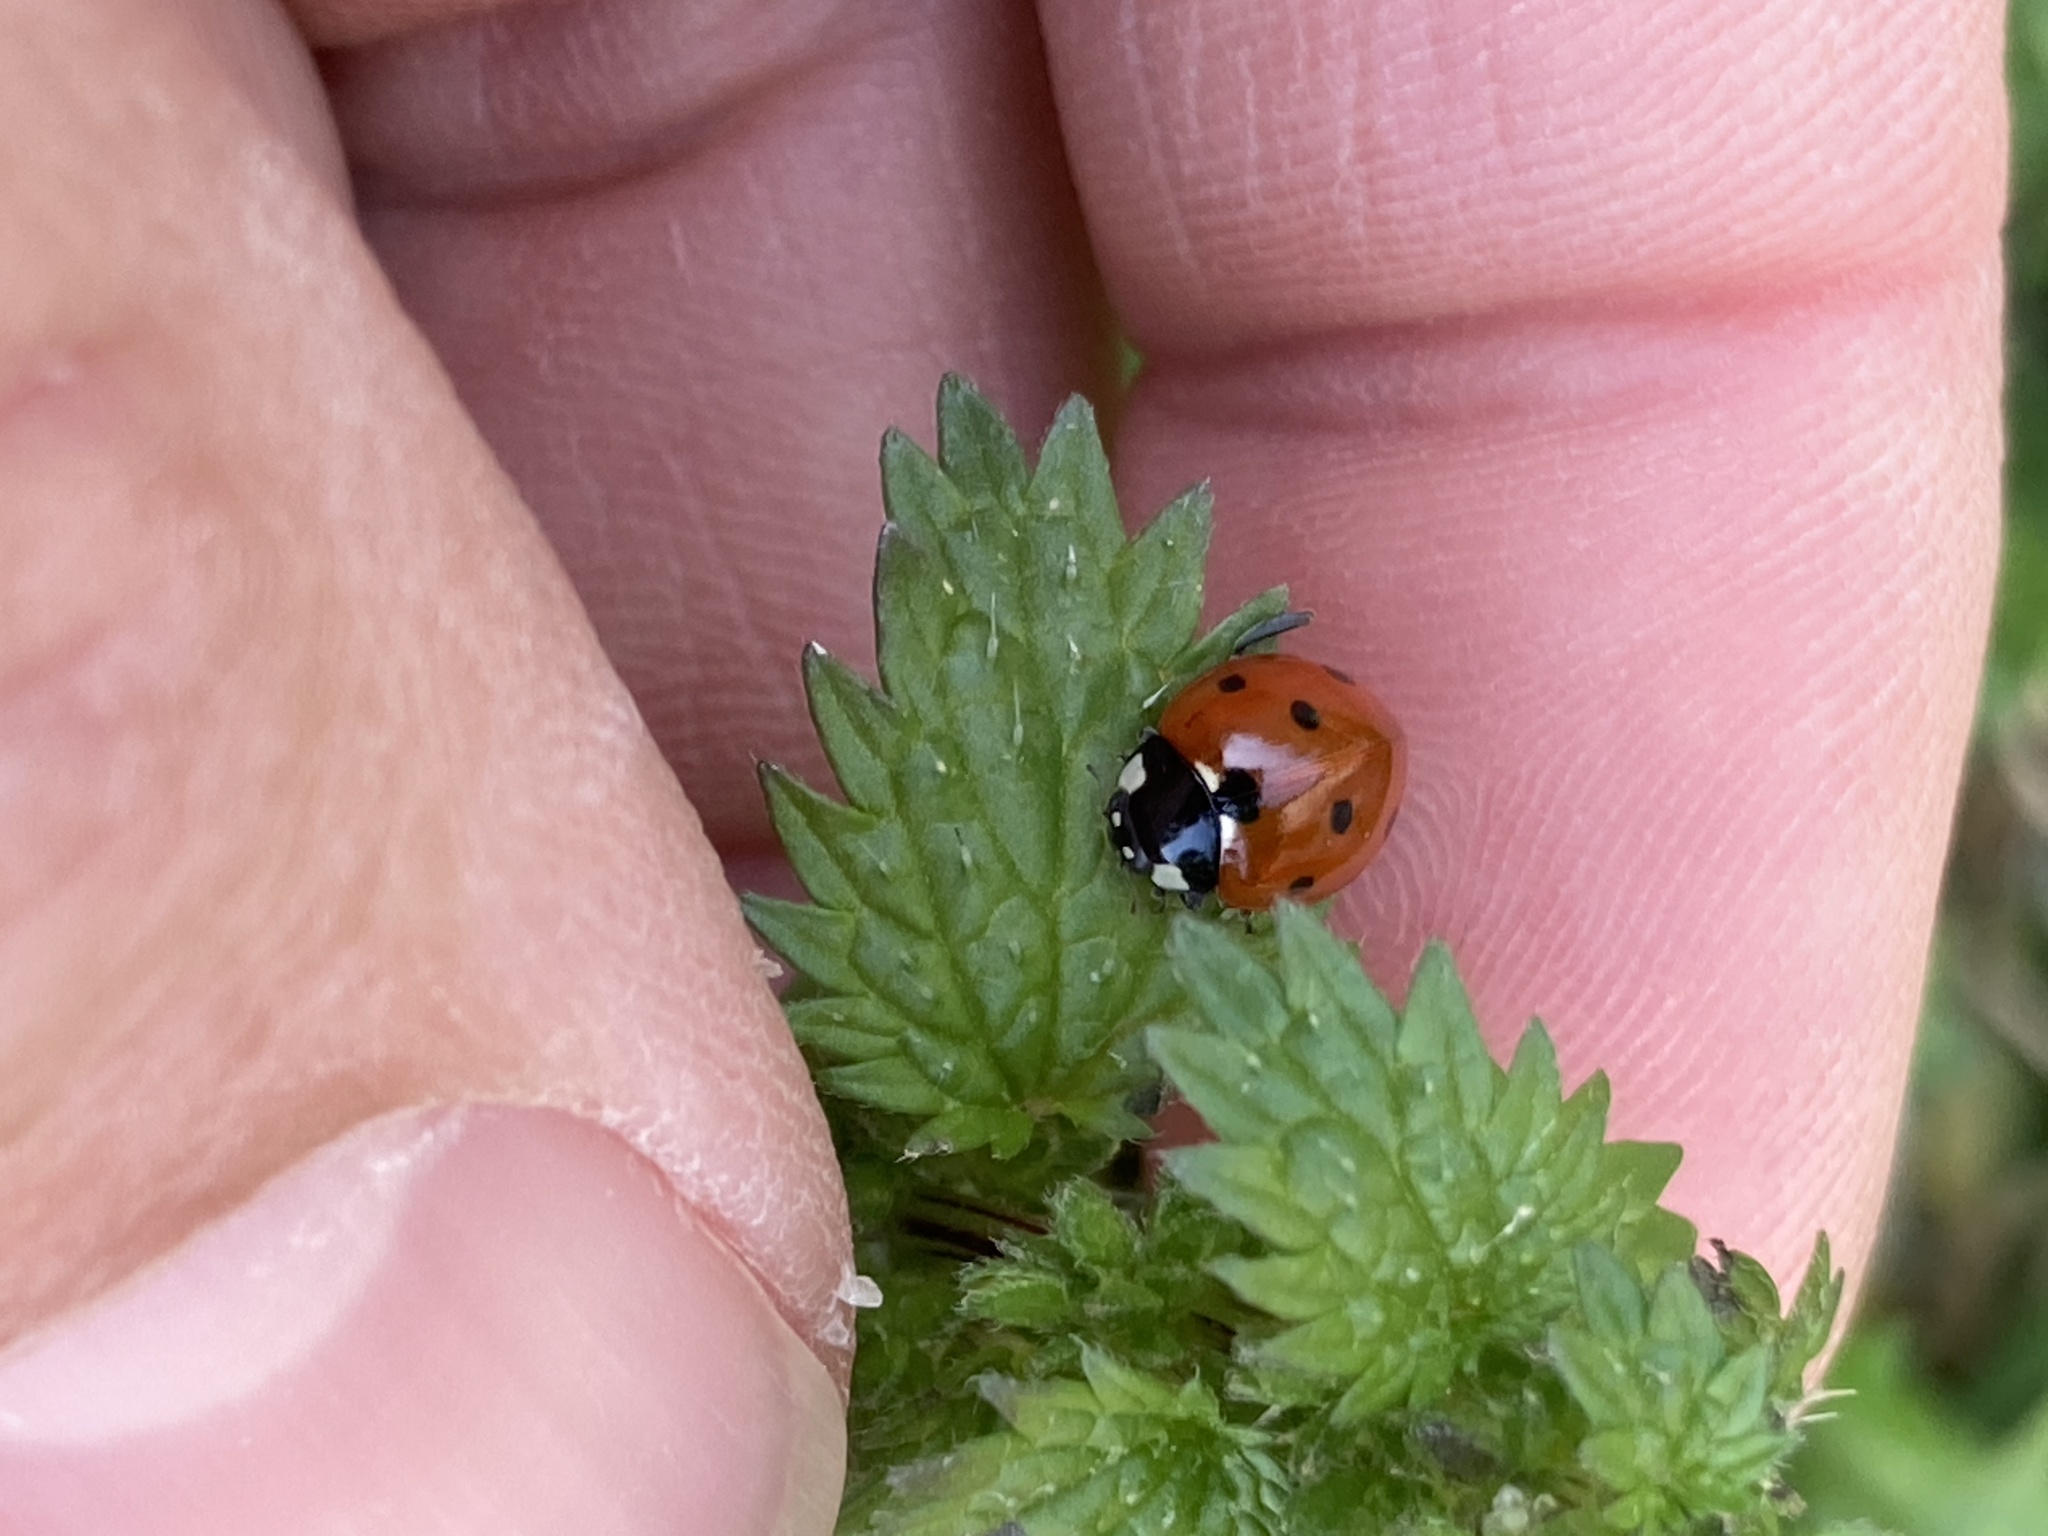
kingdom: Plantae
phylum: Tracheophyta
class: Magnoliopsida
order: Rosales
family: Urticaceae
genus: Urtica
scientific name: Urtica urens
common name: Dwarf nettle
